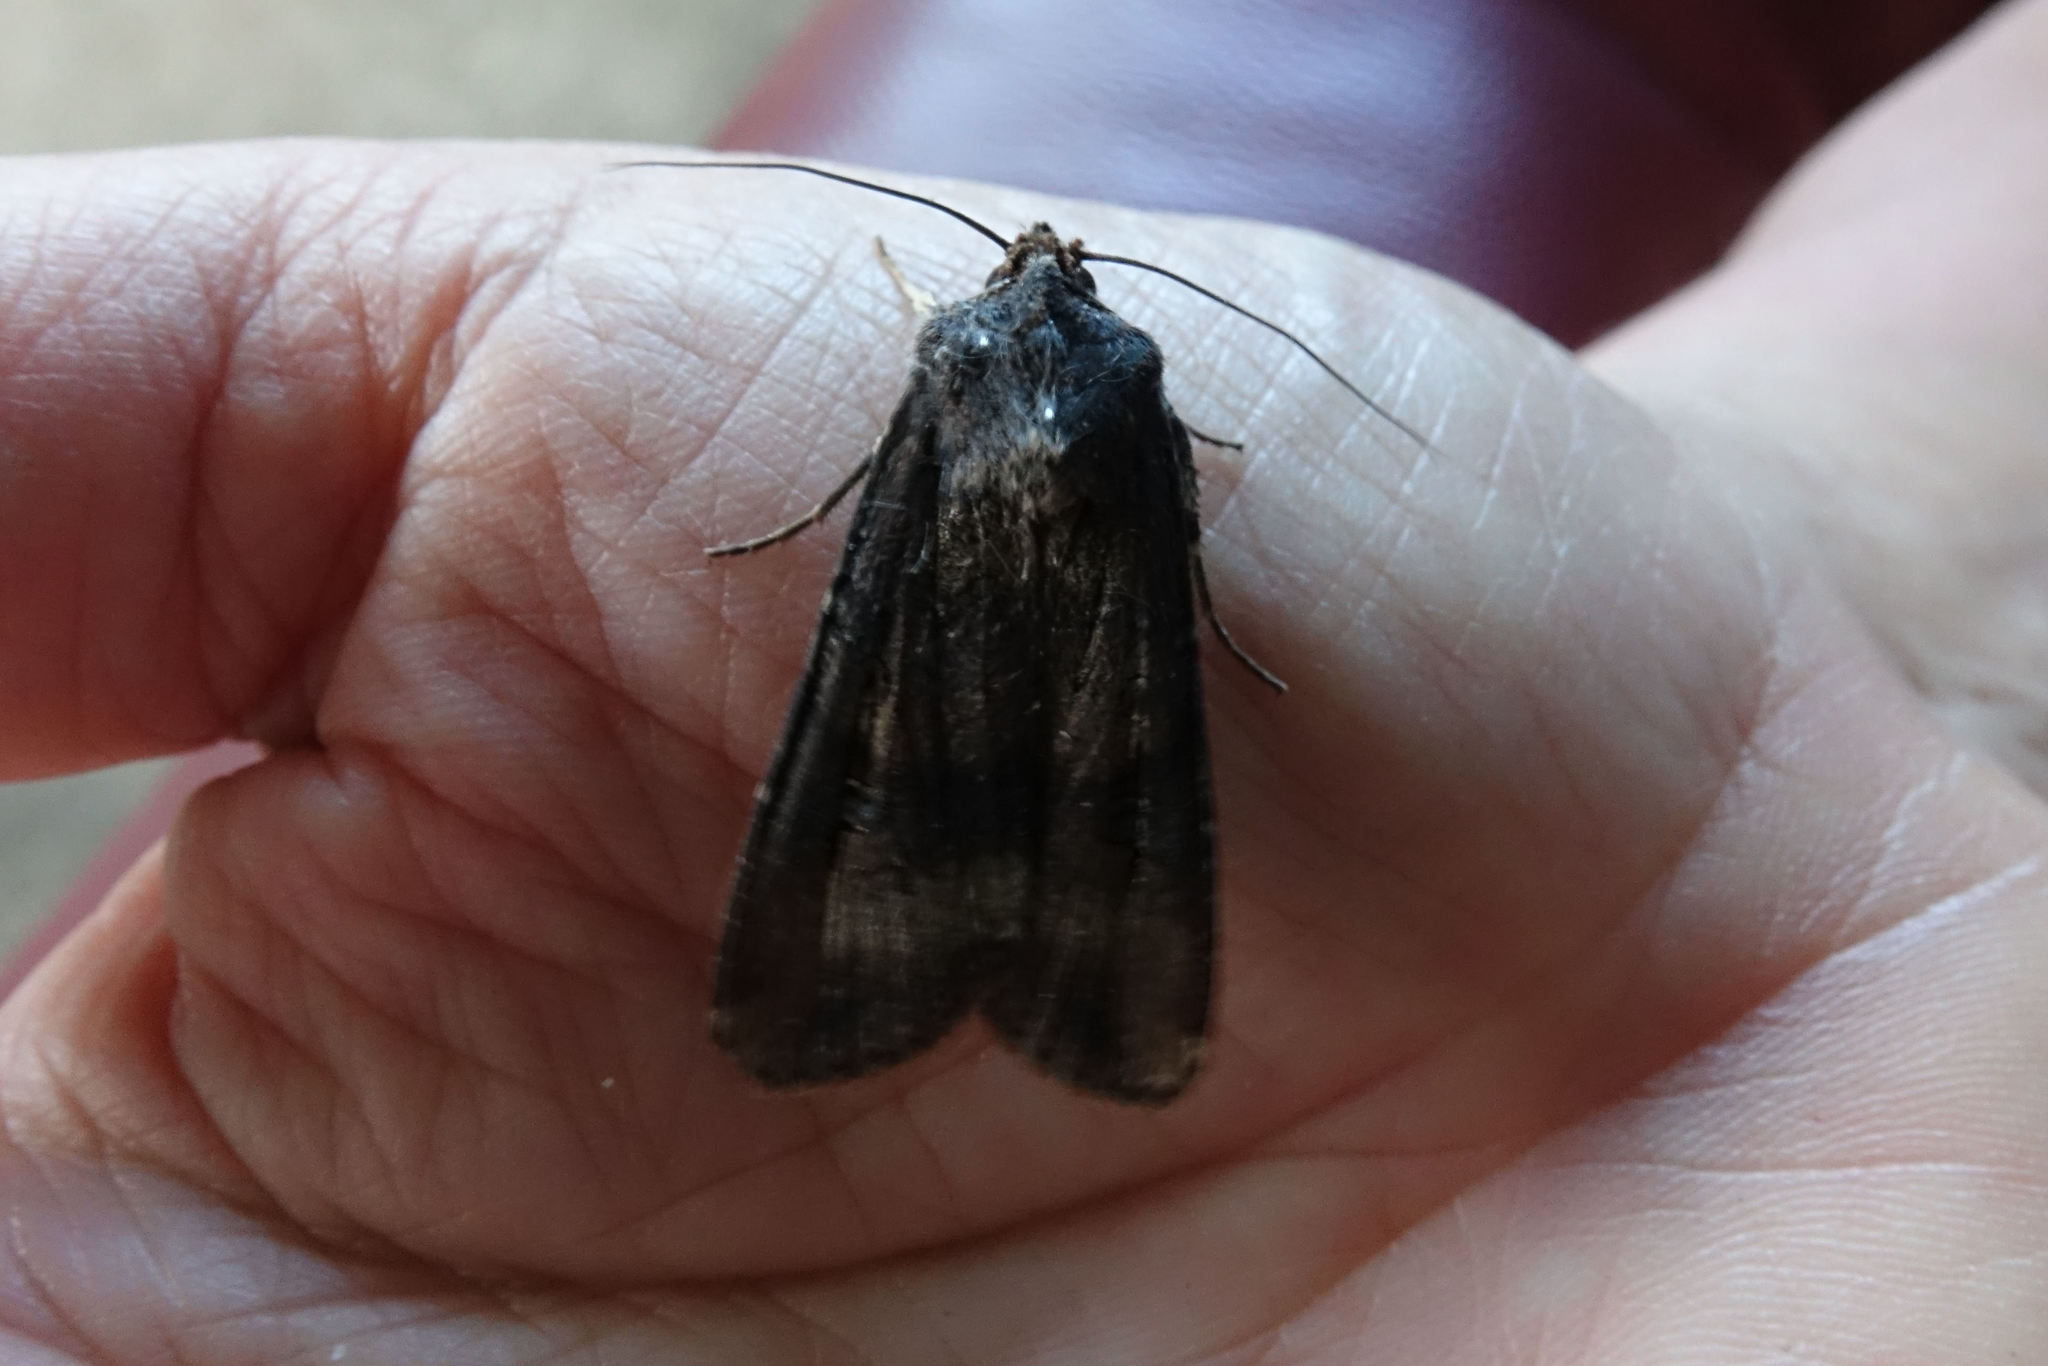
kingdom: Animalia
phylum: Arthropoda
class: Insecta
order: Lepidoptera
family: Noctuidae
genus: Agrotis
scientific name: Agrotis ipsilon
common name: Dark sword-grass
